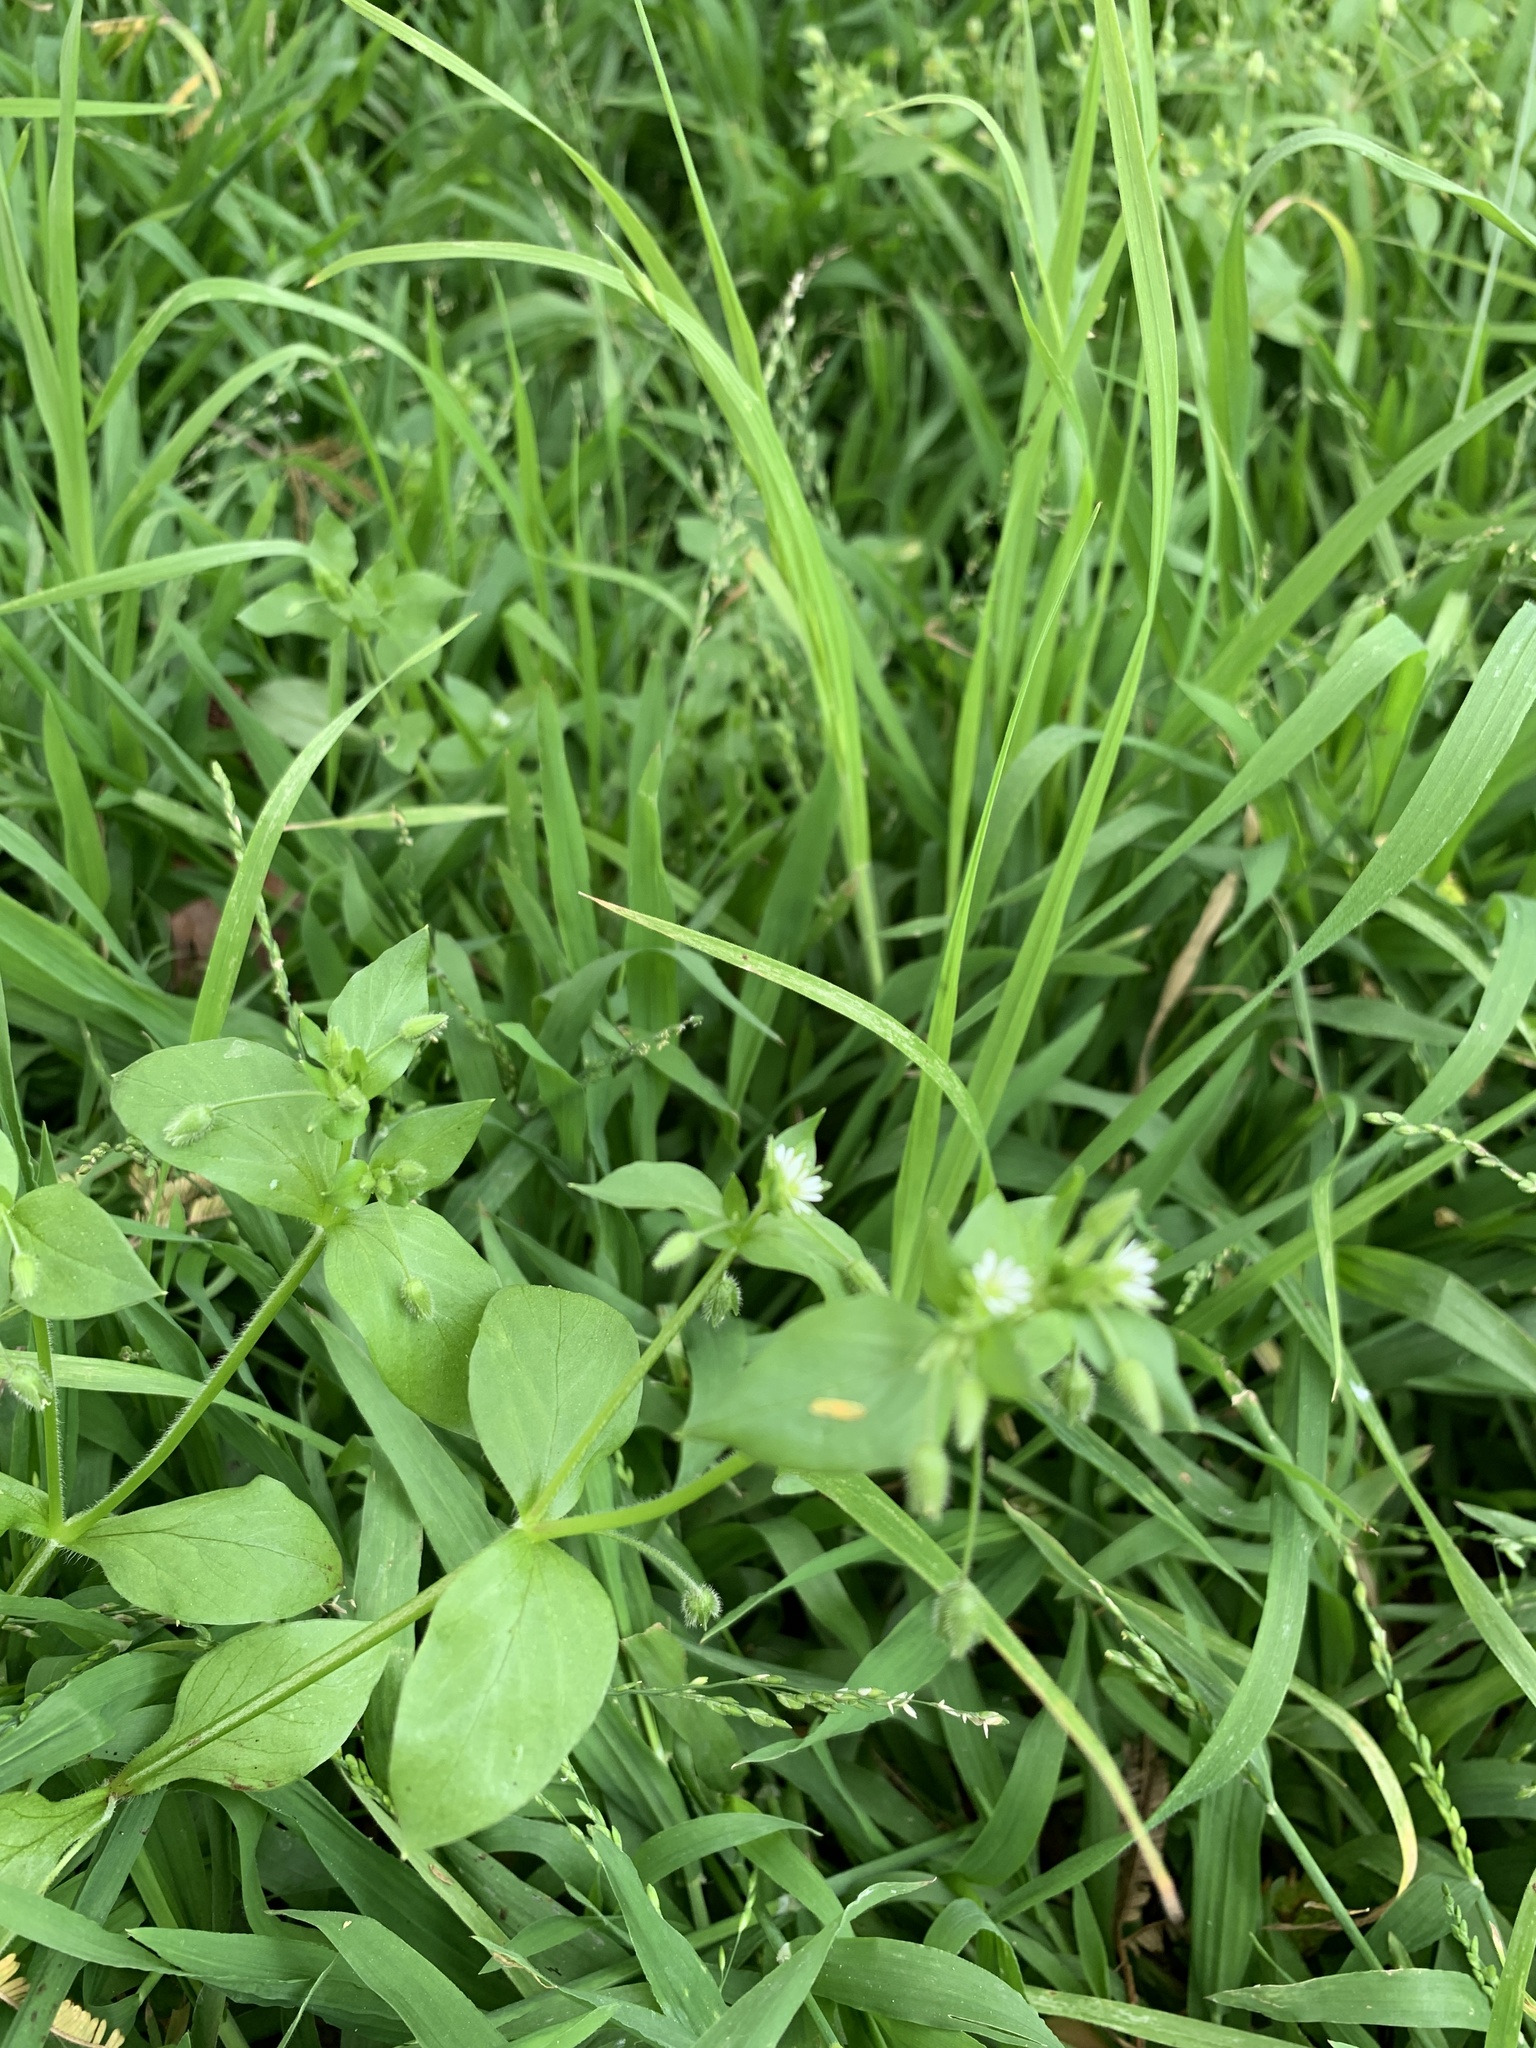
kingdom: Plantae
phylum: Tracheophyta
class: Magnoliopsida
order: Caryophyllales
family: Caryophyllaceae
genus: Stellaria
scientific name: Stellaria media
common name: Common chickweed
